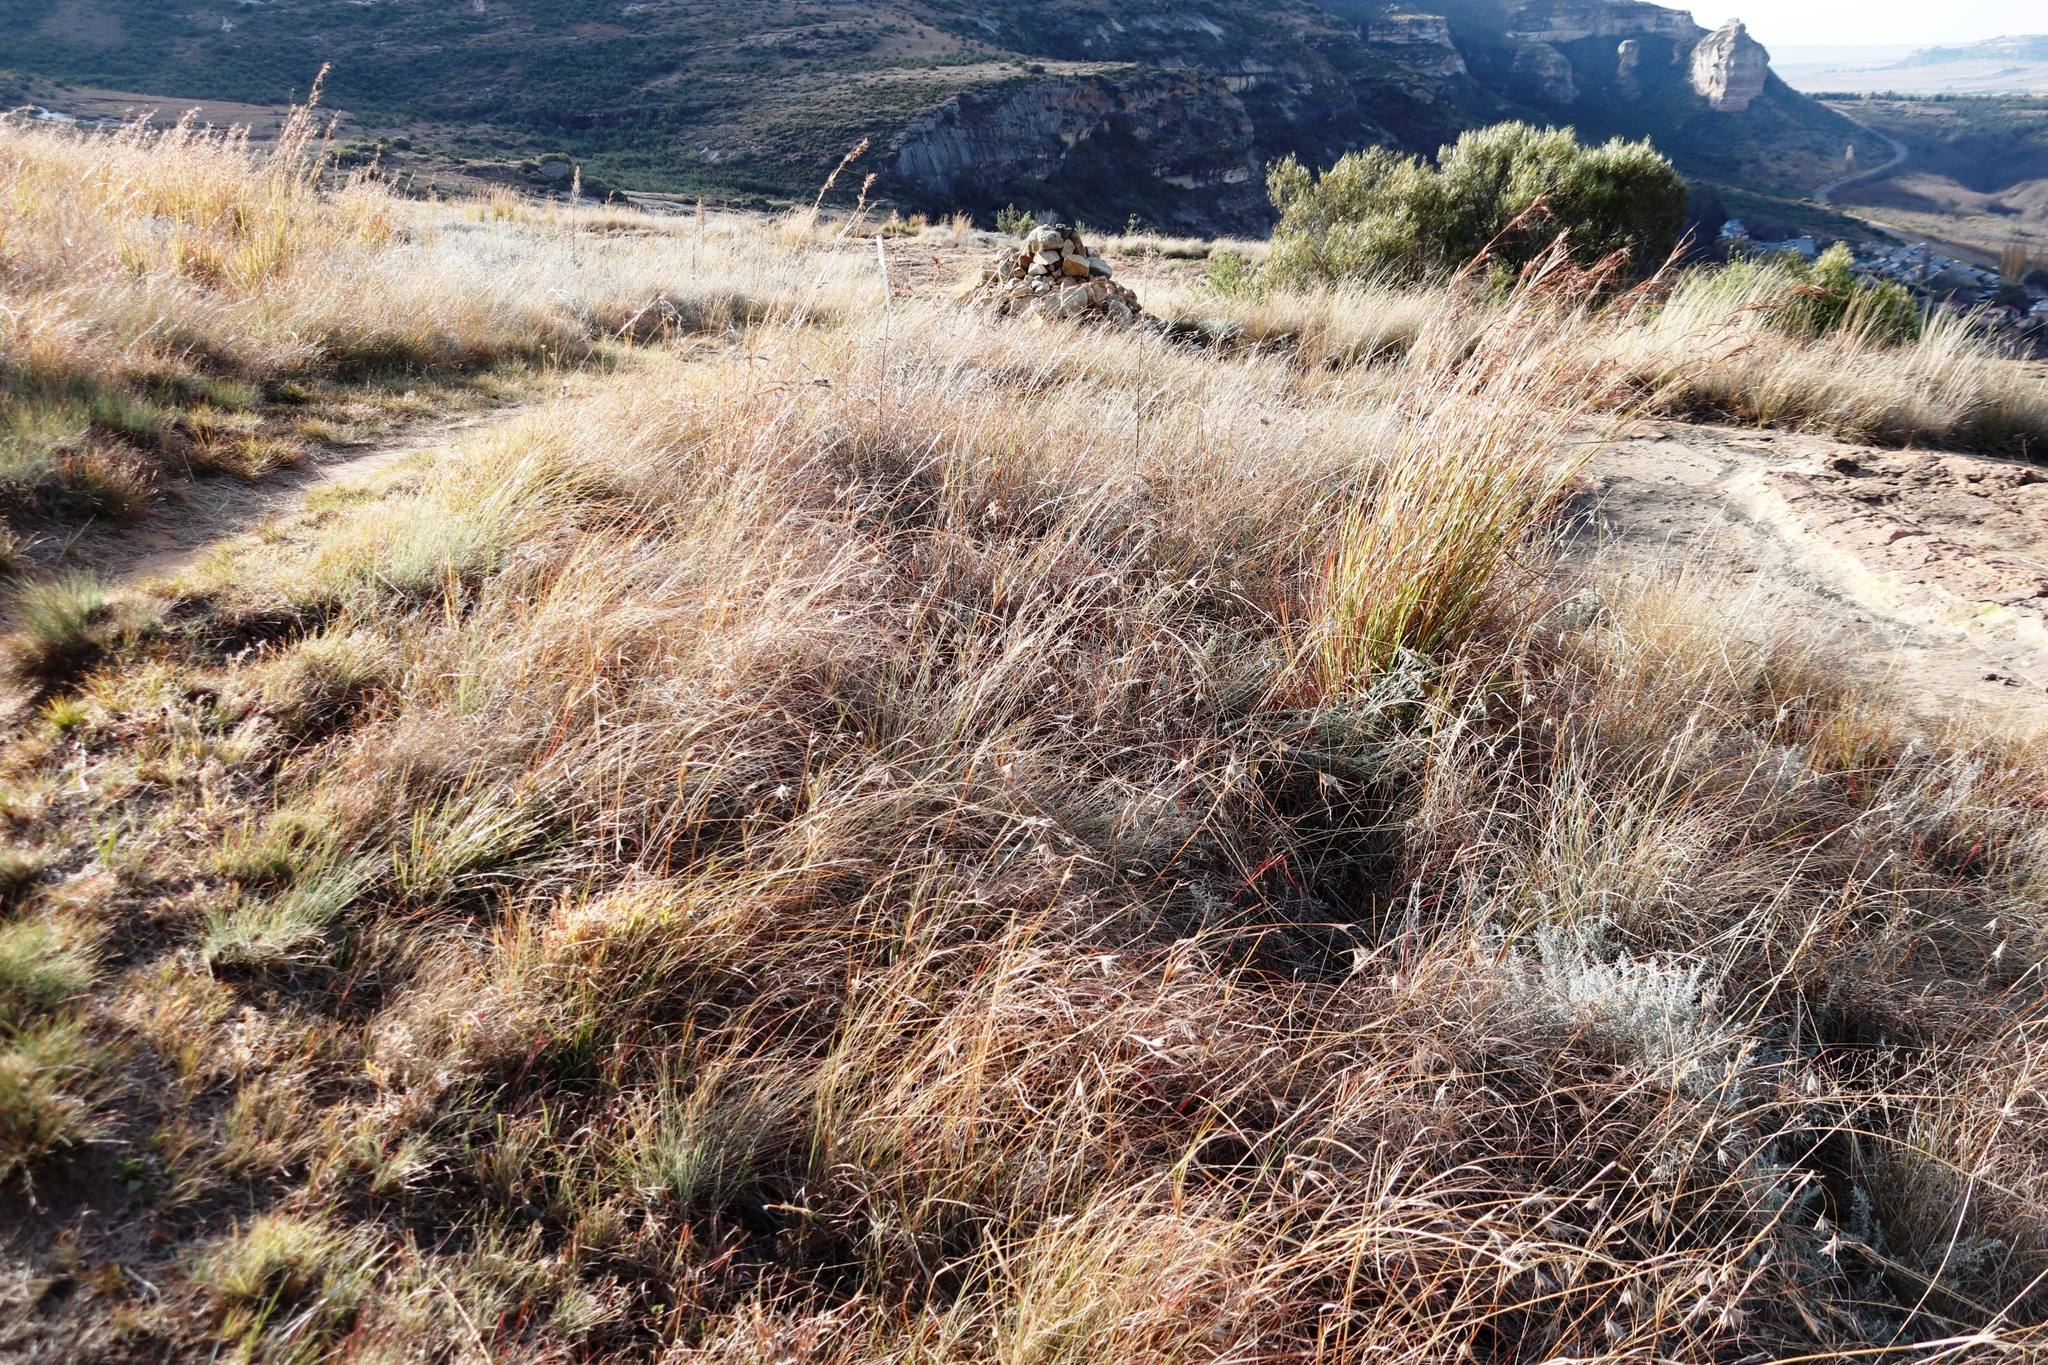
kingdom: Plantae
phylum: Tracheophyta
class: Liliopsida
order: Poales
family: Poaceae
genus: Themeda
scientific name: Themeda triandra
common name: Kangaroo grass
